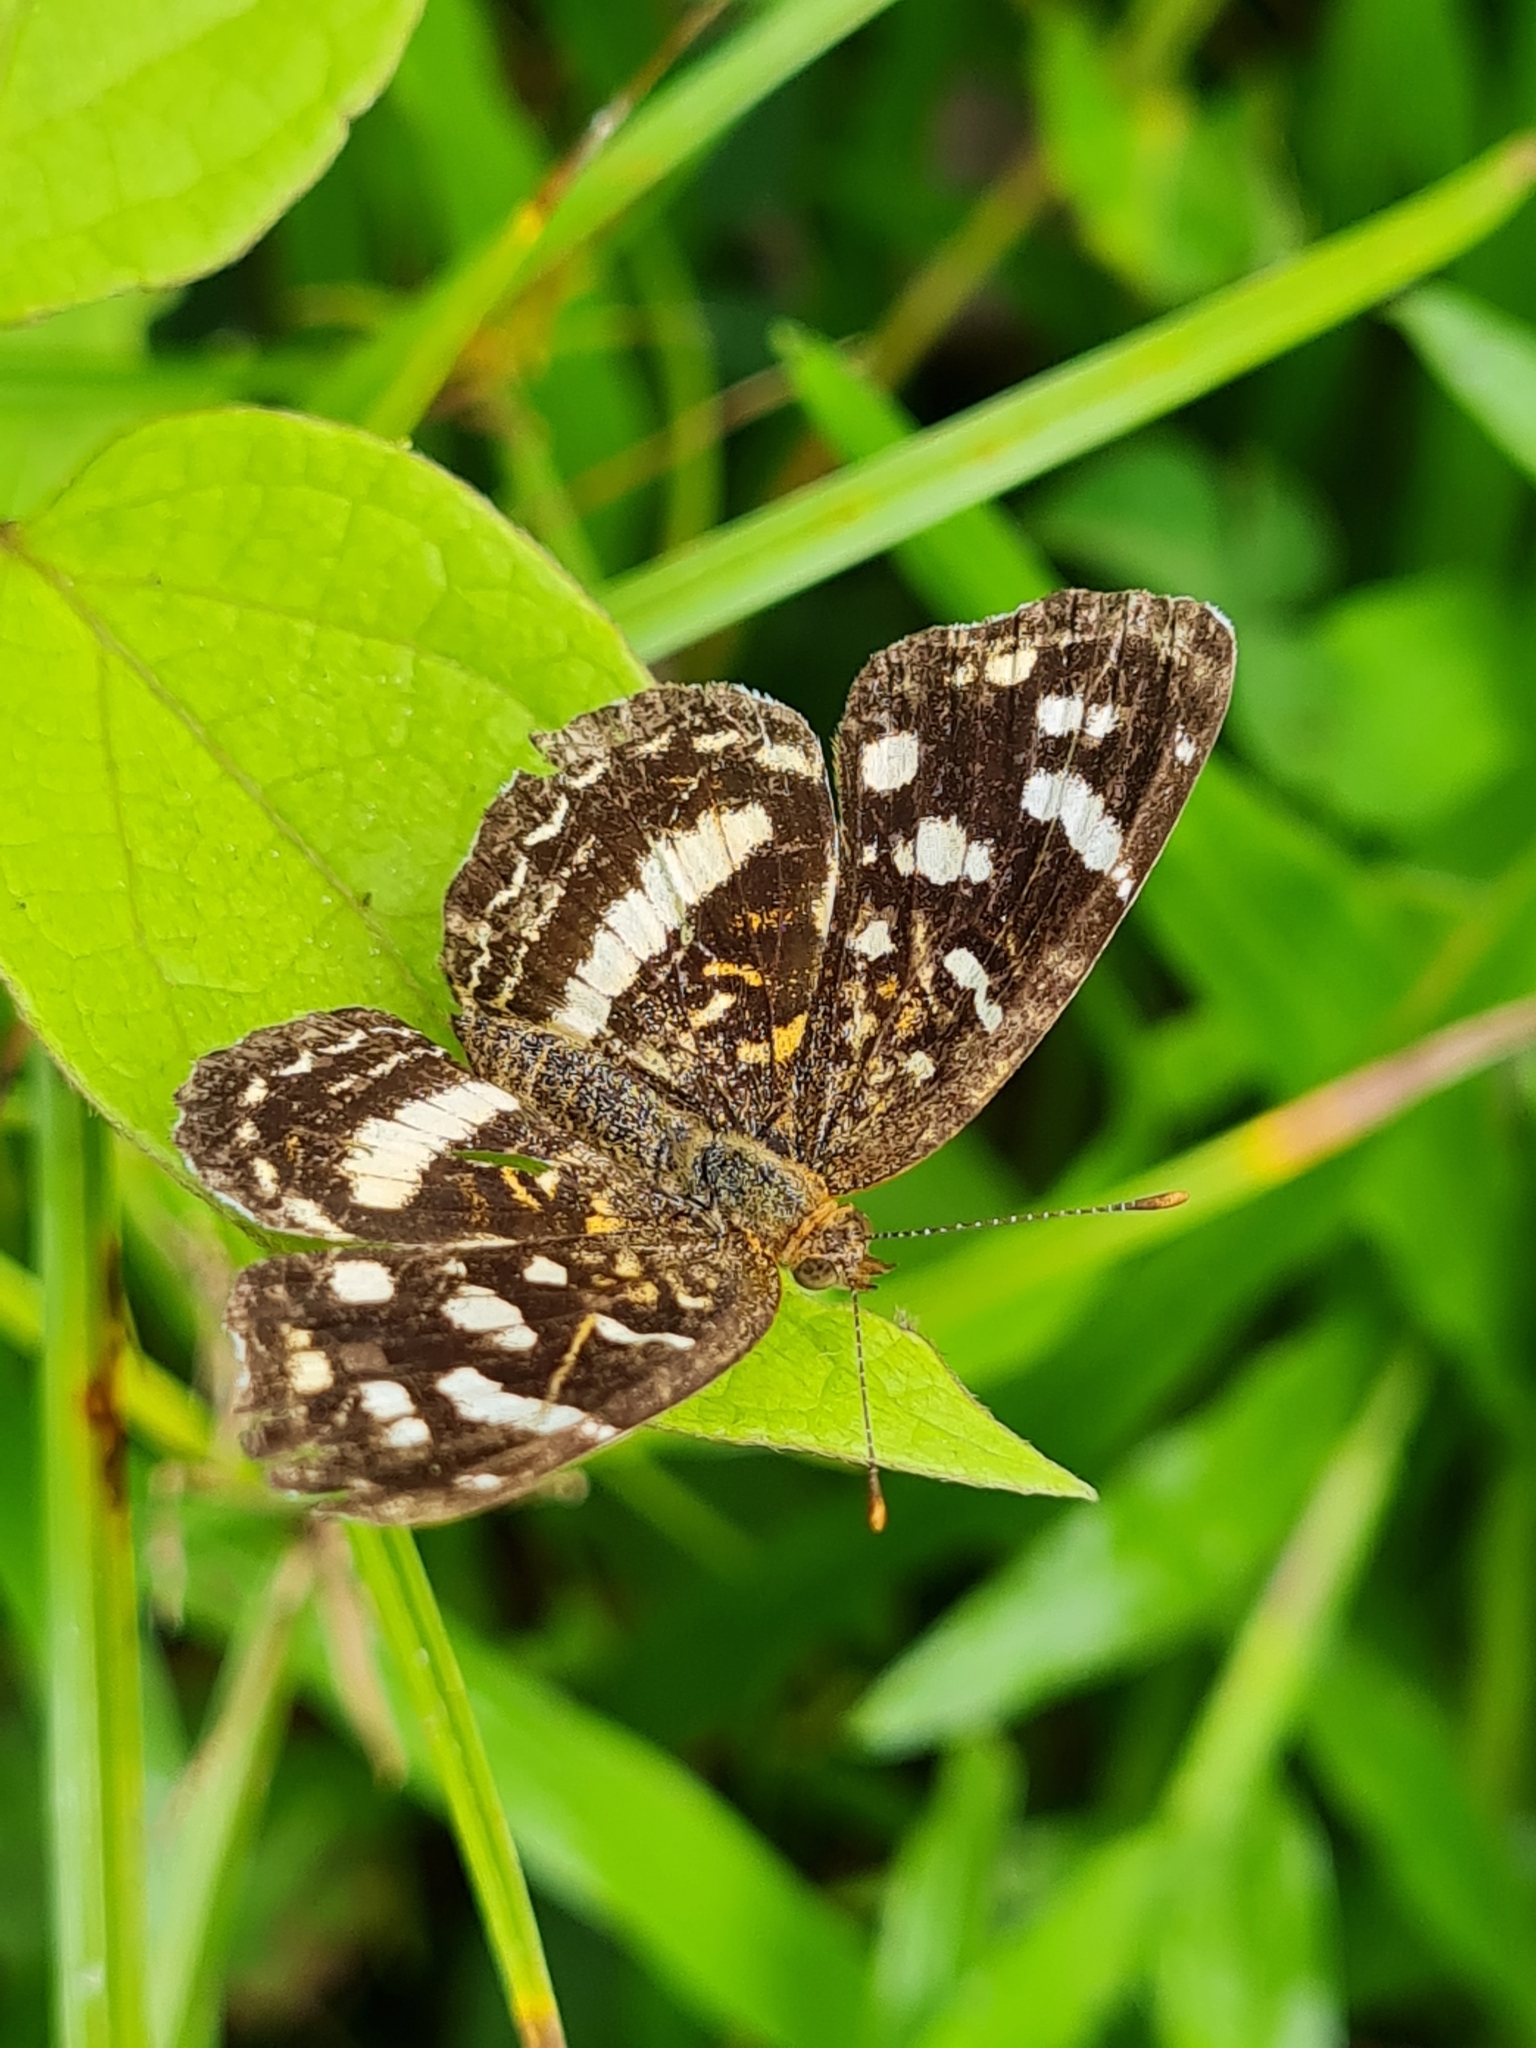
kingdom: Animalia
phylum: Arthropoda
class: Insecta
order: Lepidoptera
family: Nymphalidae
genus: Anthanassa
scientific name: Anthanassa tulcis
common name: Pale-banded crescent
